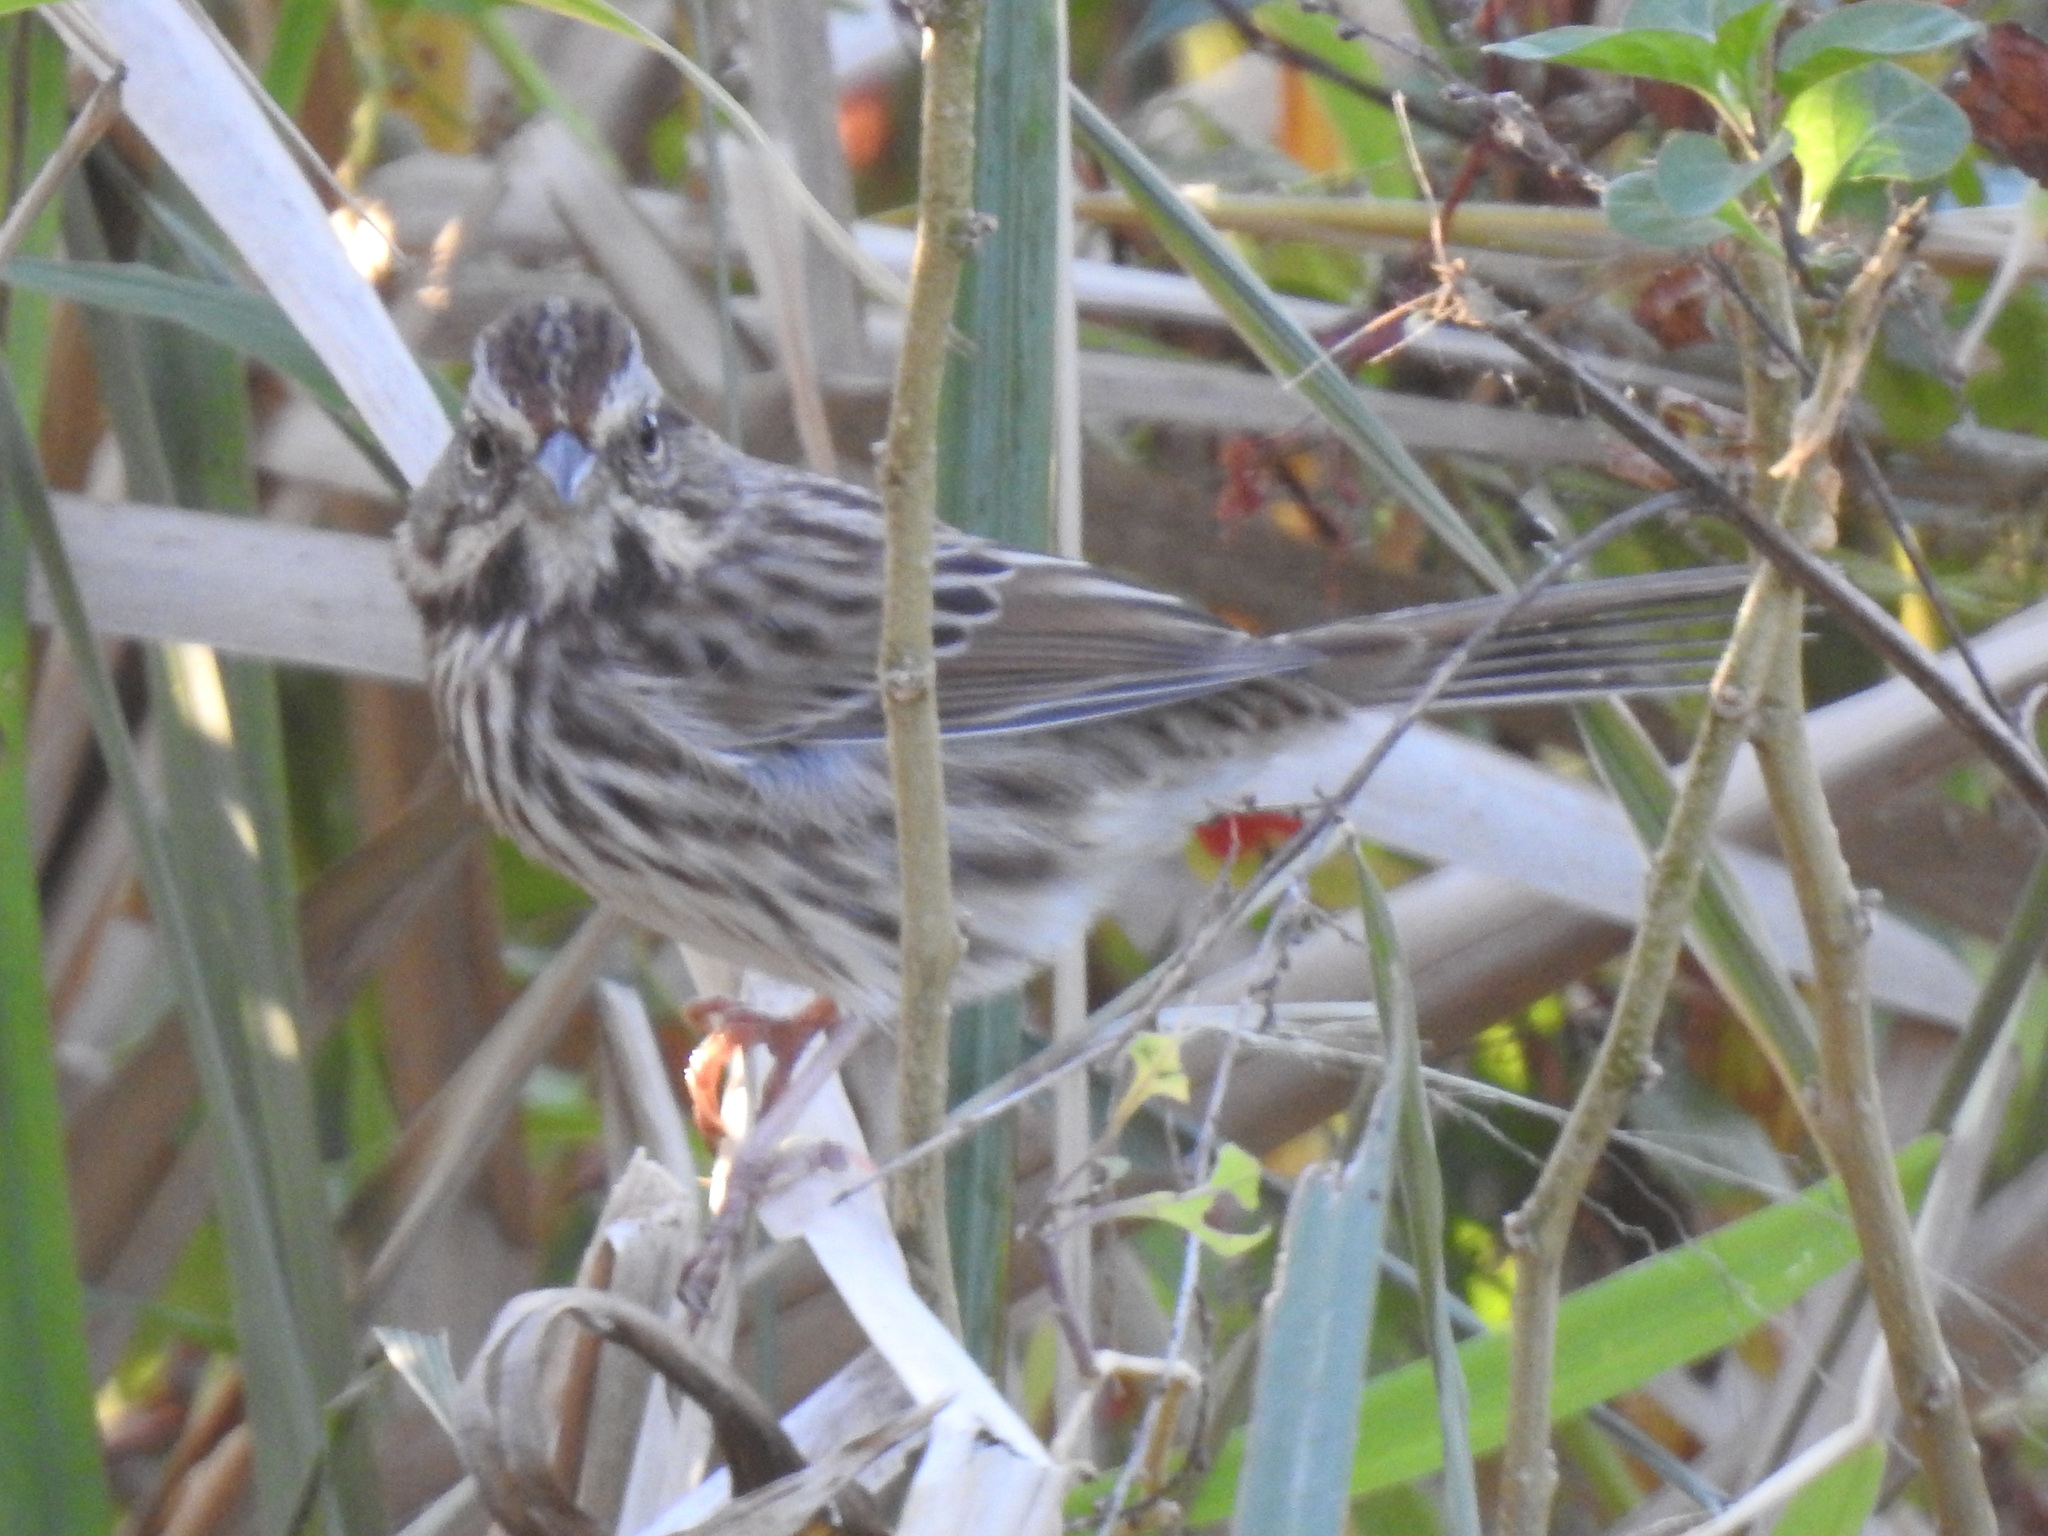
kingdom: Animalia
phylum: Chordata
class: Aves
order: Passeriformes
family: Passerellidae
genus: Melospiza
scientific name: Melospiza melodia
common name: Song sparrow
